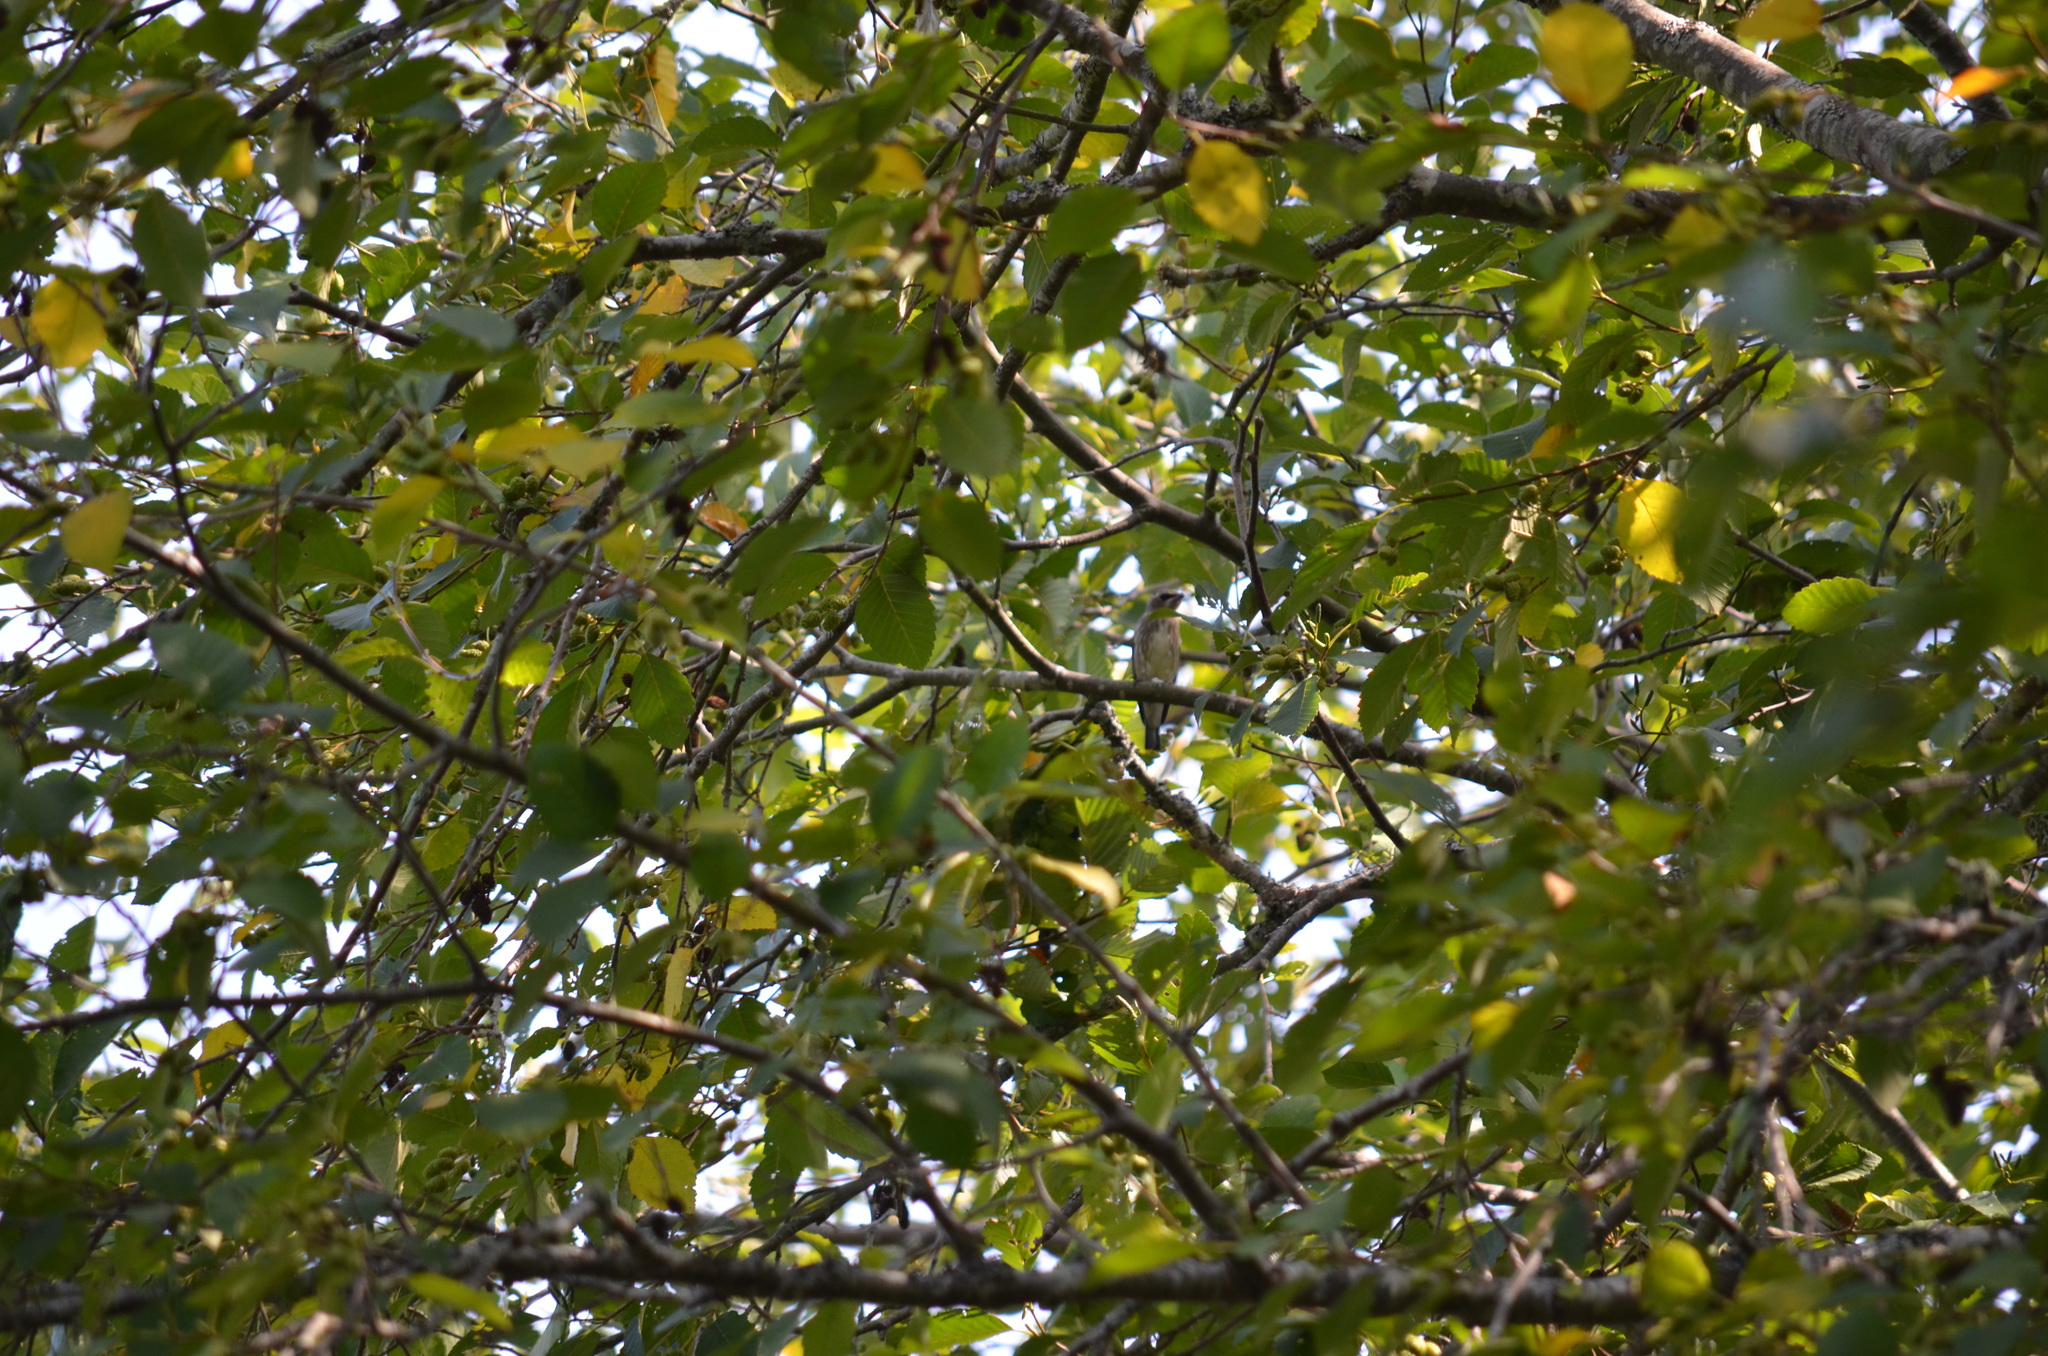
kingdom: Animalia
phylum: Chordata
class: Aves
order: Passeriformes
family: Bombycillidae
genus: Bombycilla
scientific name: Bombycilla cedrorum
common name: Cedar waxwing
